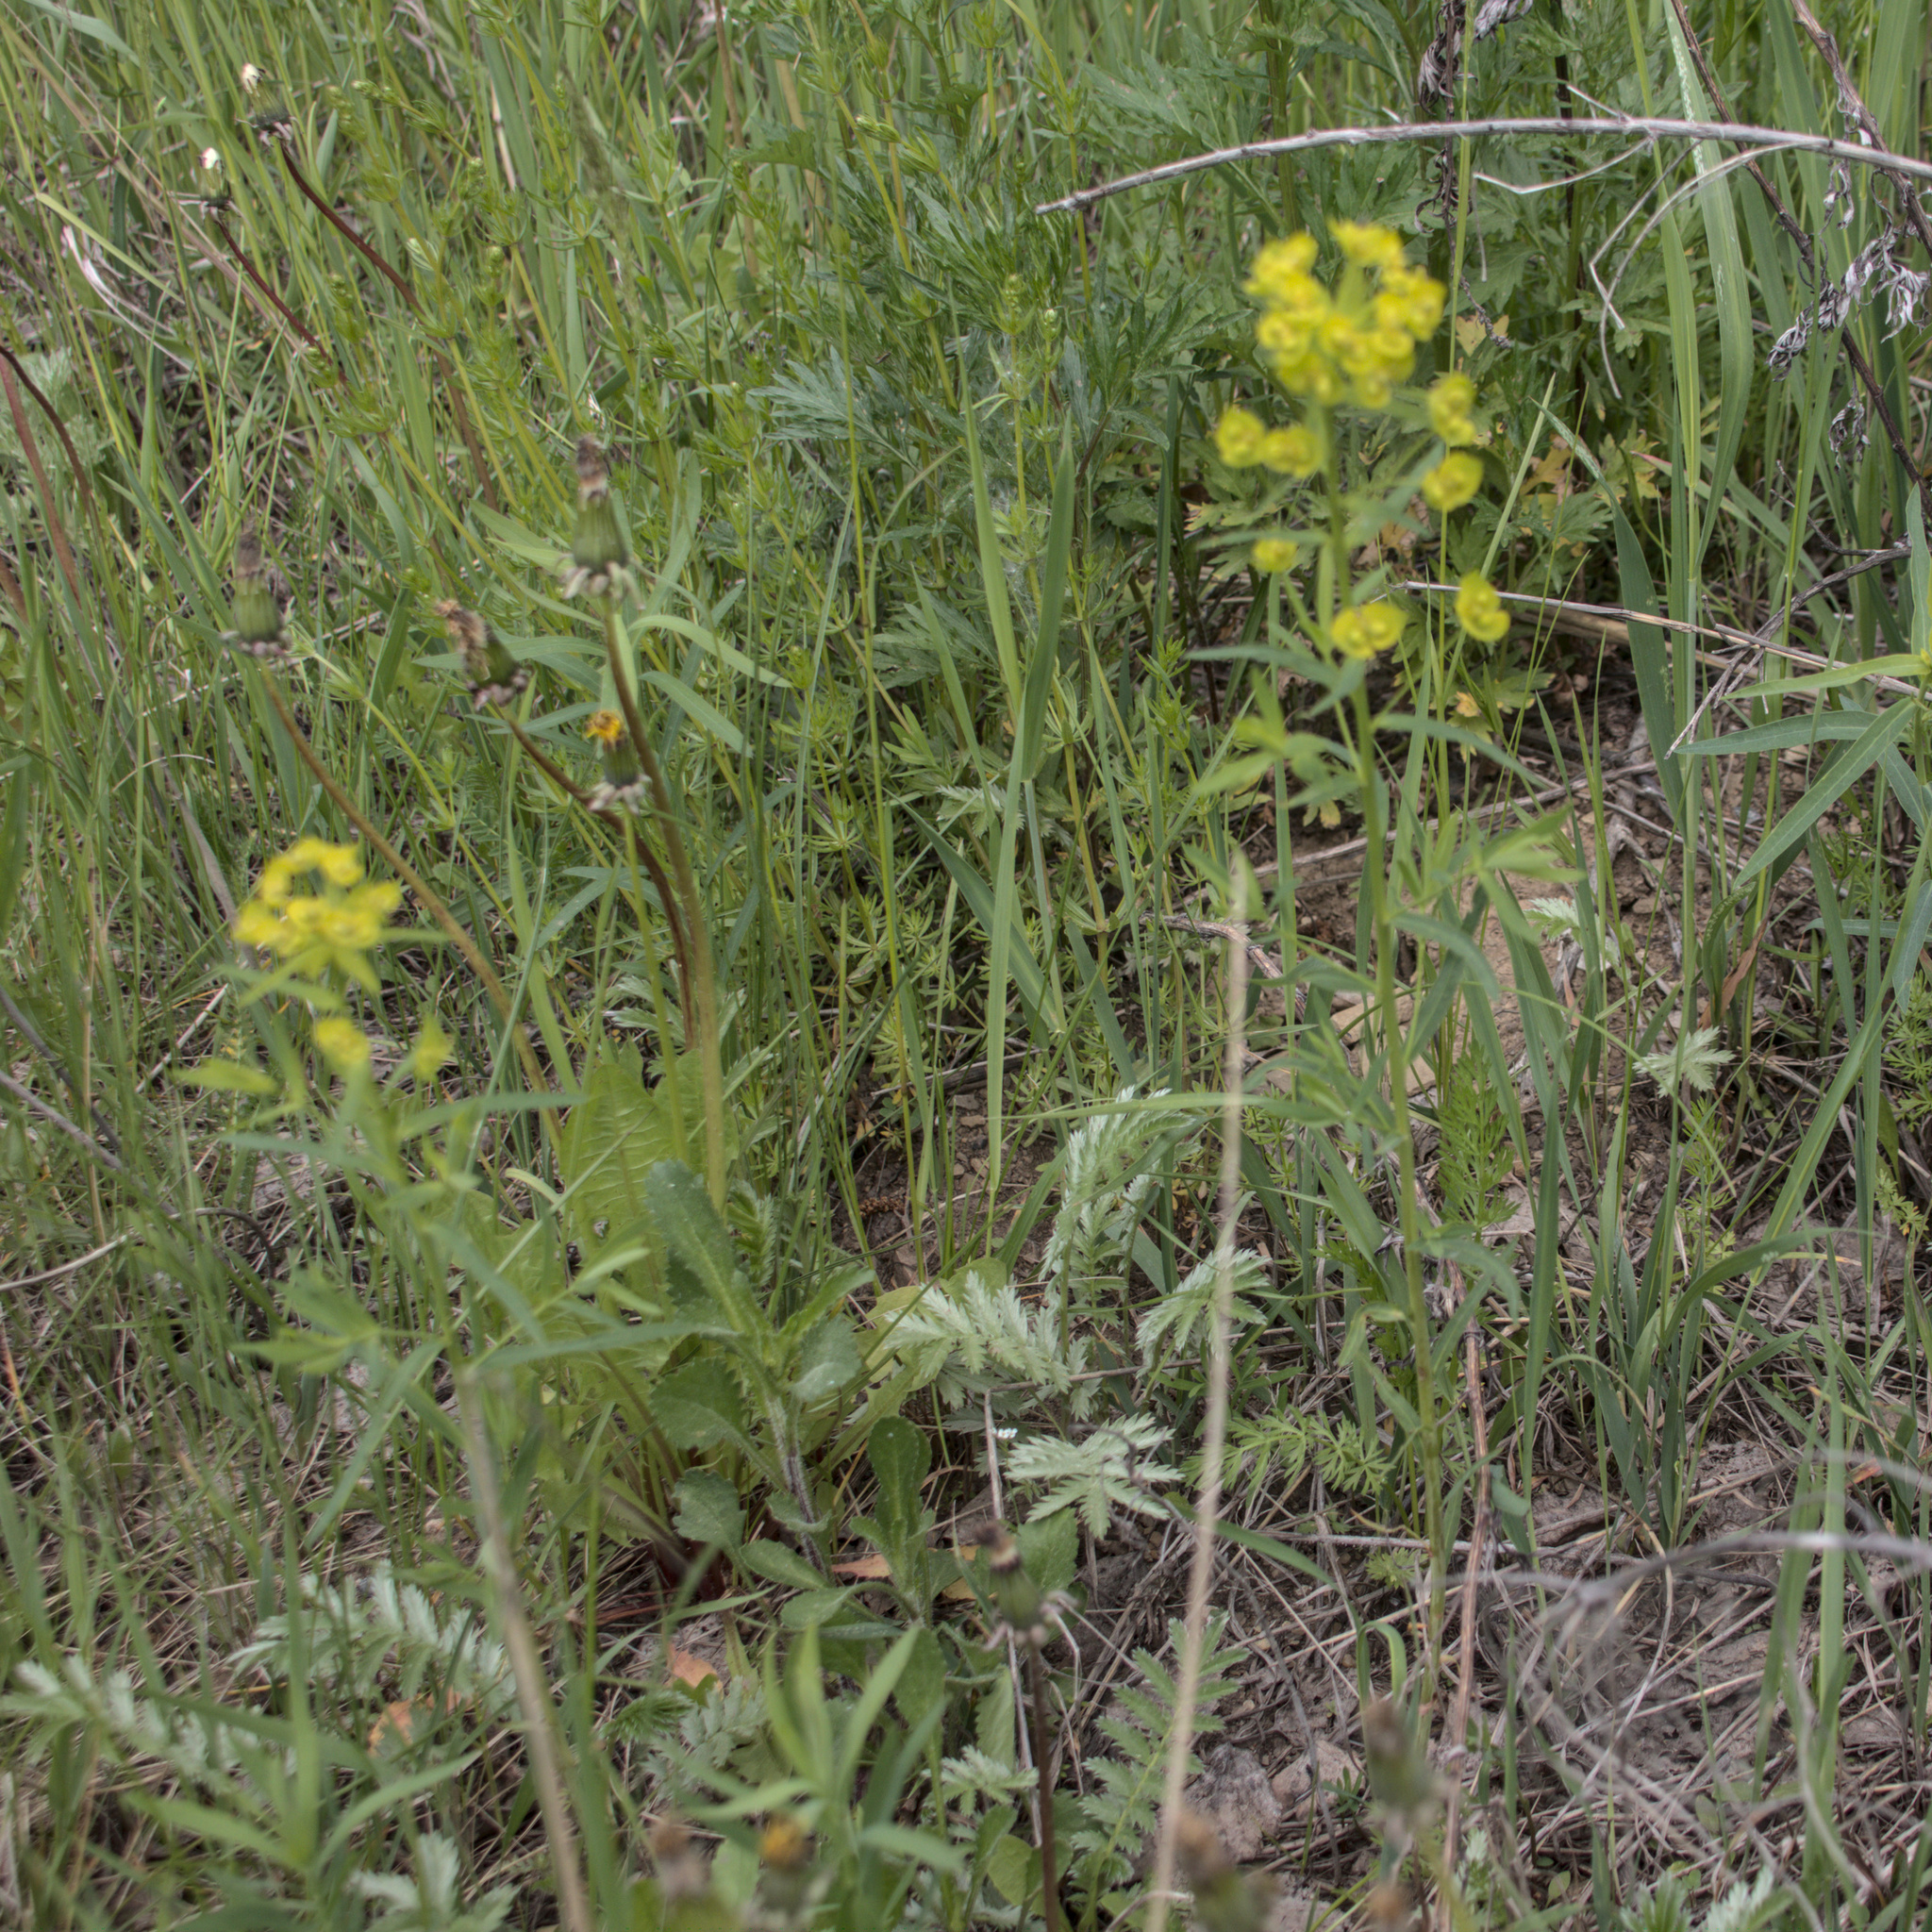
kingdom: Plantae
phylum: Tracheophyta
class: Magnoliopsida
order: Malpighiales
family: Euphorbiaceae
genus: Euphorbia
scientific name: Euphorbia virgata
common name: Leafy spurge
